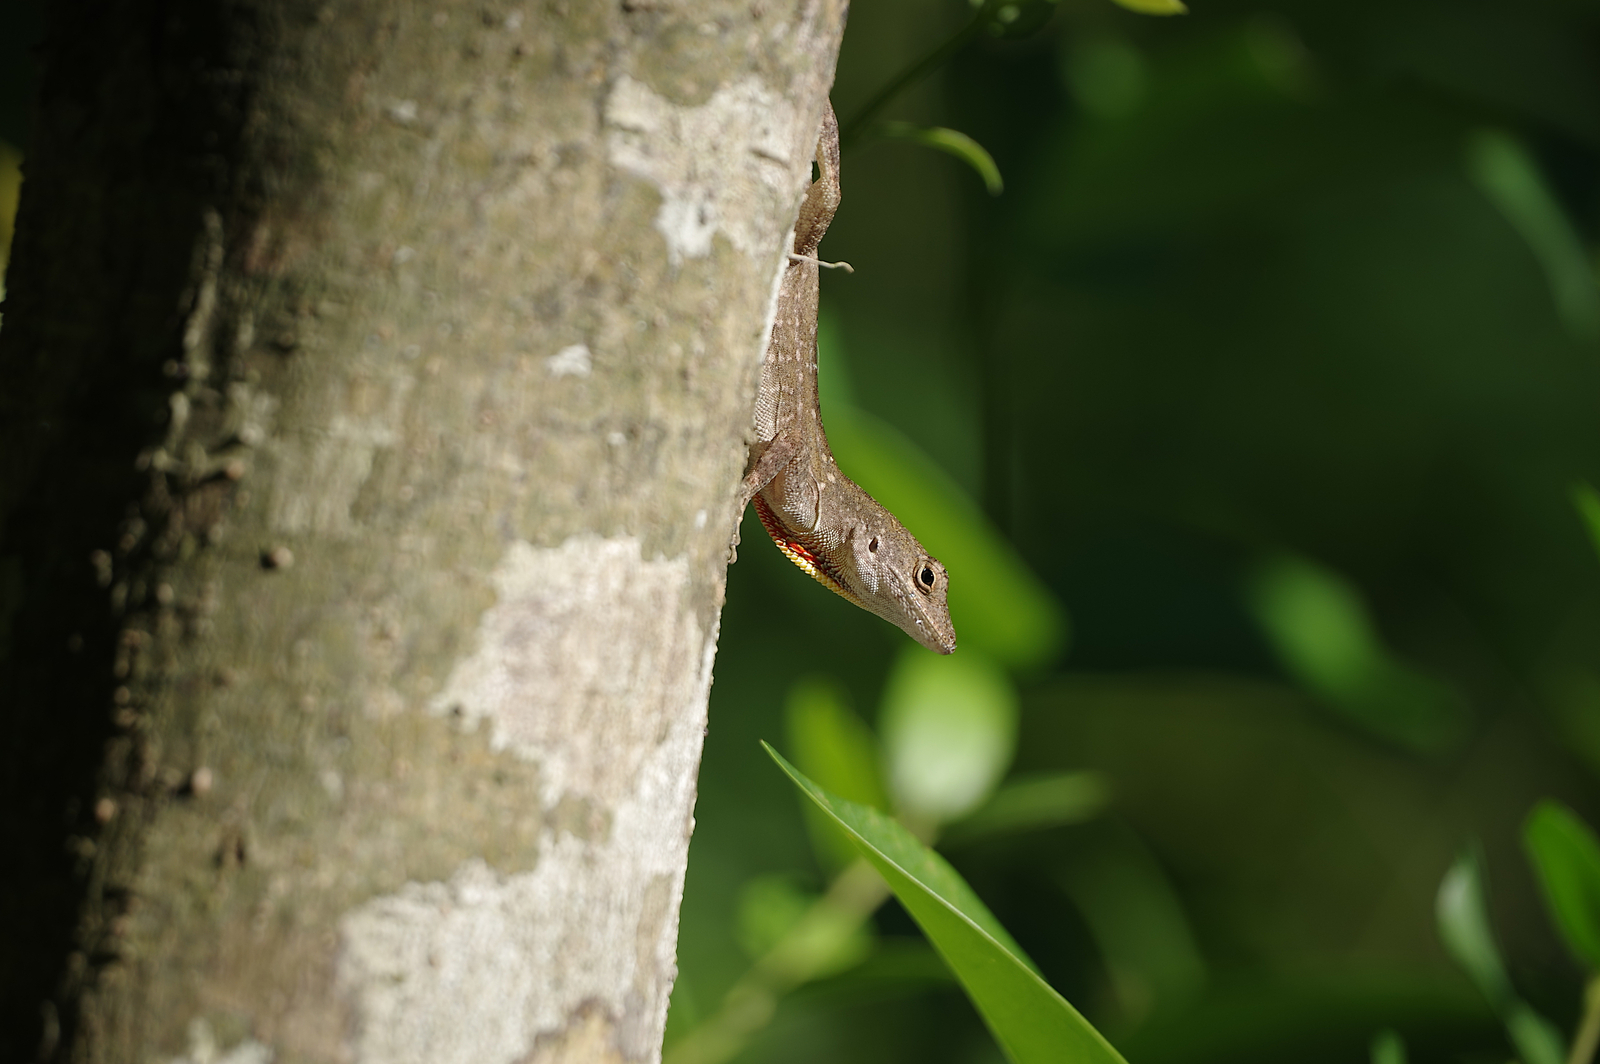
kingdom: Animalia
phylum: Chordata
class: Squamata
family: Dactyloidae
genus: Anolis
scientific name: Anolis sagrei
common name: Brown anole
